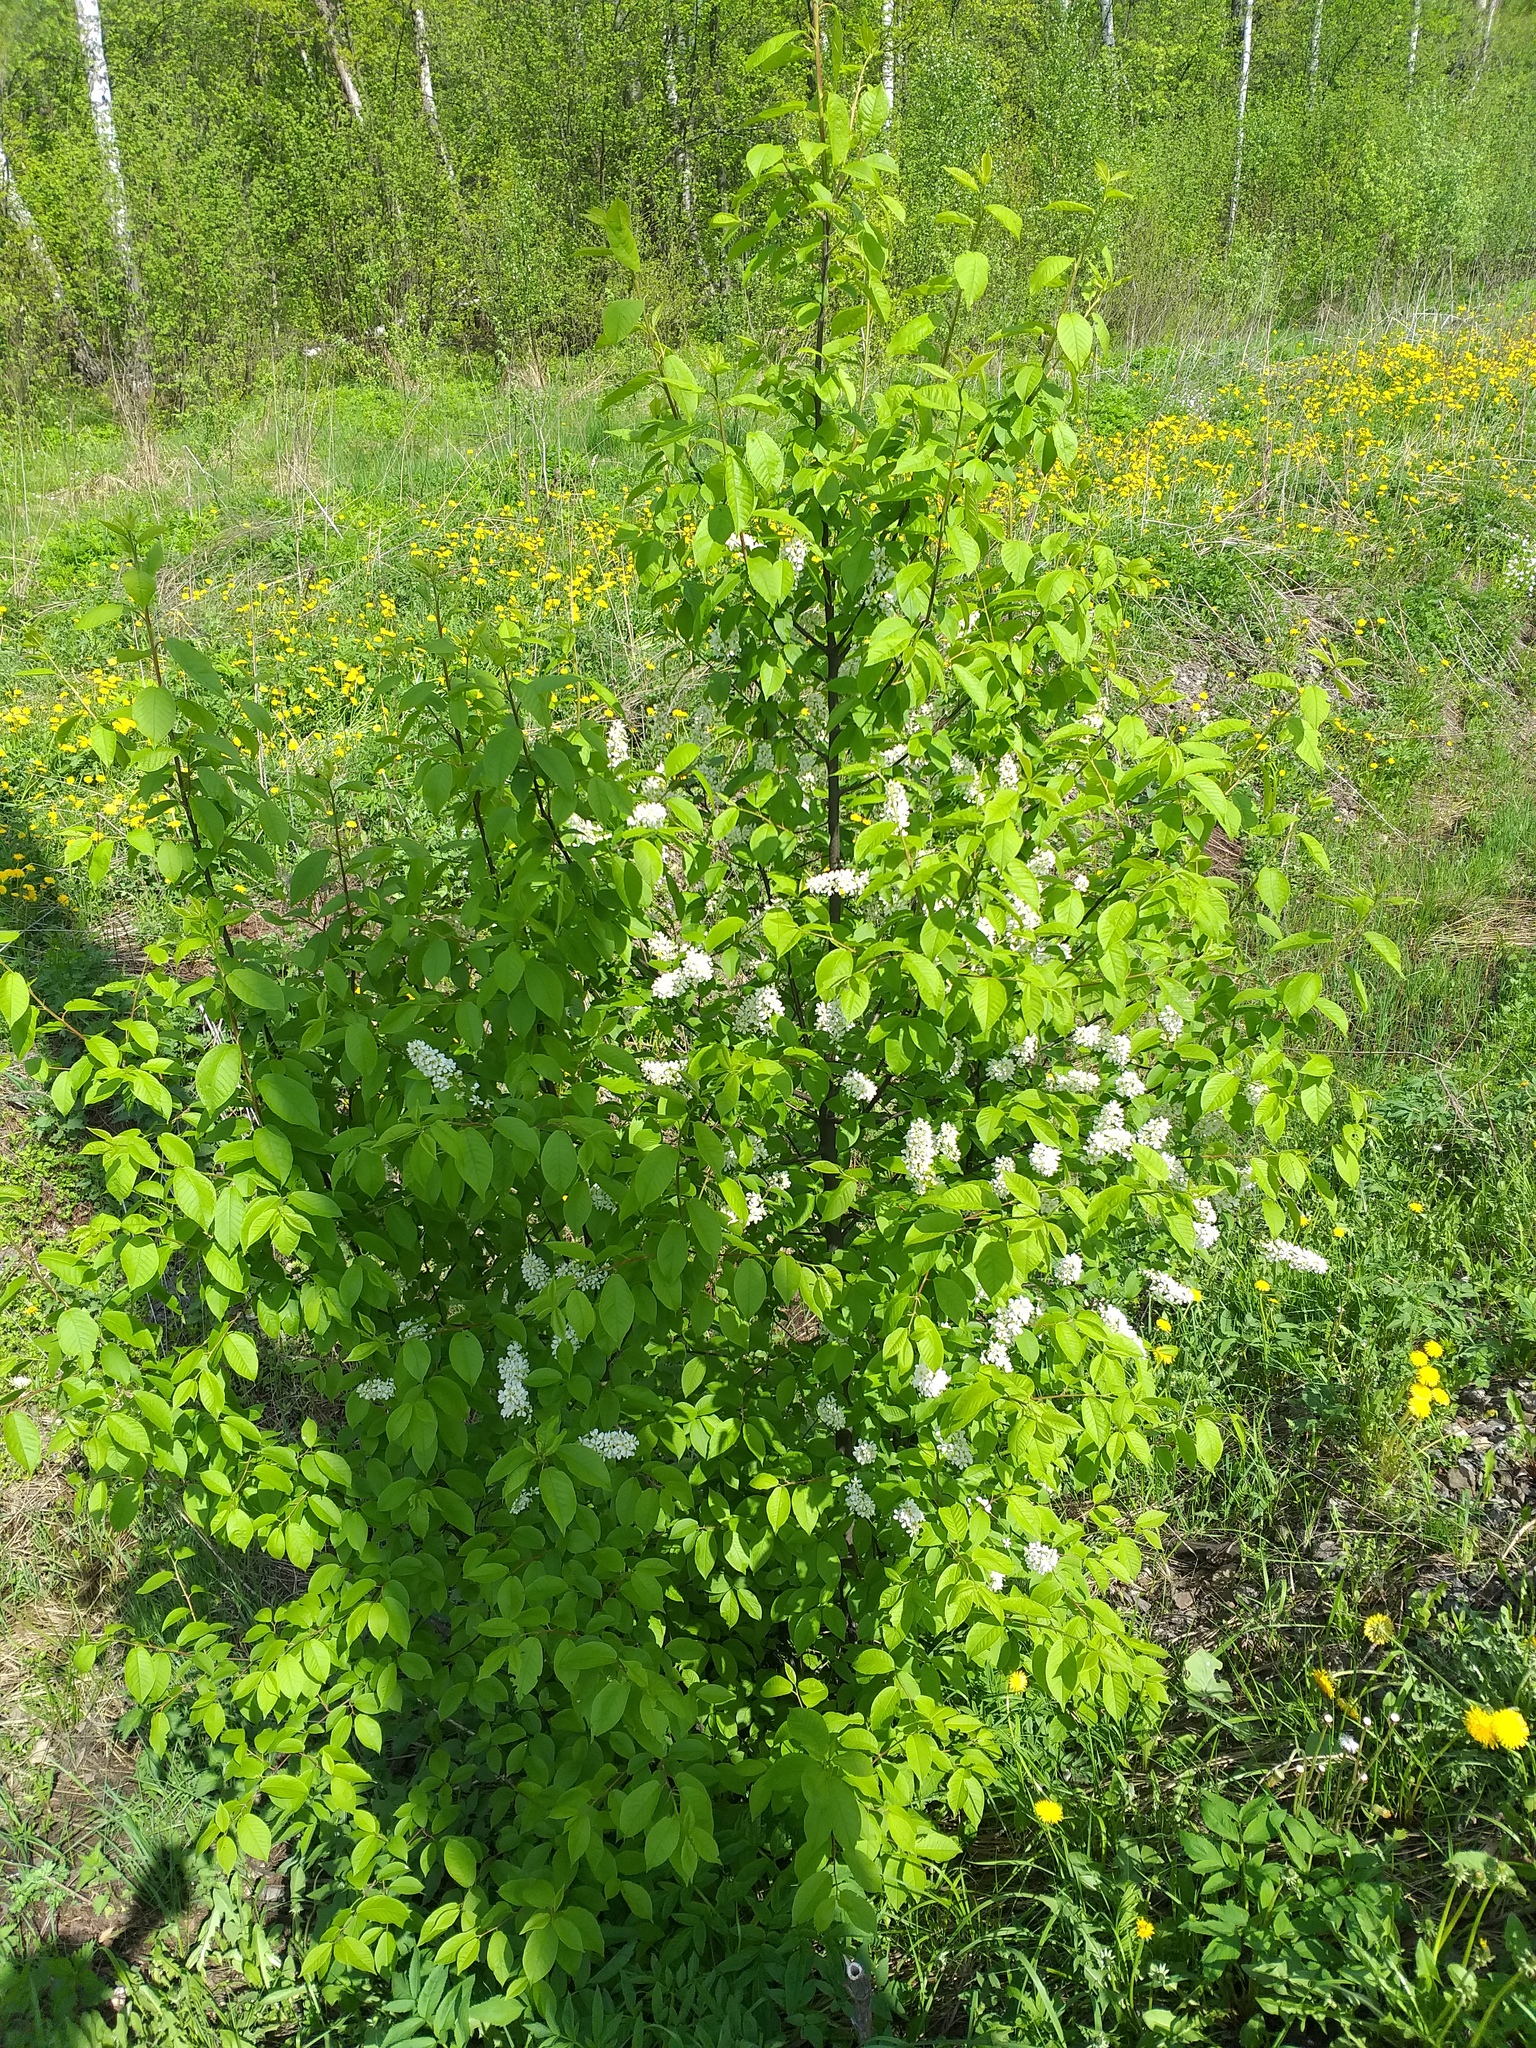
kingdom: Plantae
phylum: Tracheophyta
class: Magnoliopsida
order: Rosales
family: Rosaceae
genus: Prunus
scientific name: Prunus padus
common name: Bird cherry
